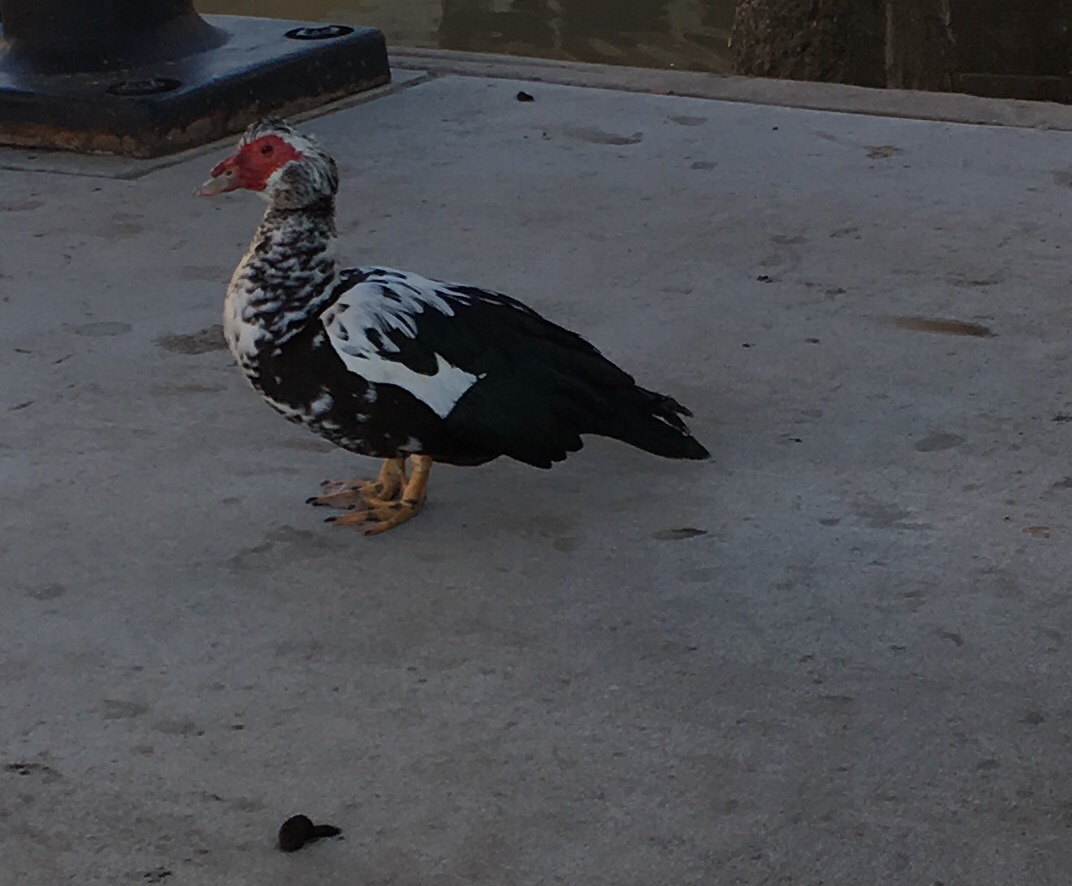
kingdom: Animalia
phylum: Chordata
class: Aves
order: Anseriformes
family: Anatidae
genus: Cairina
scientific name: Cairina moschata
